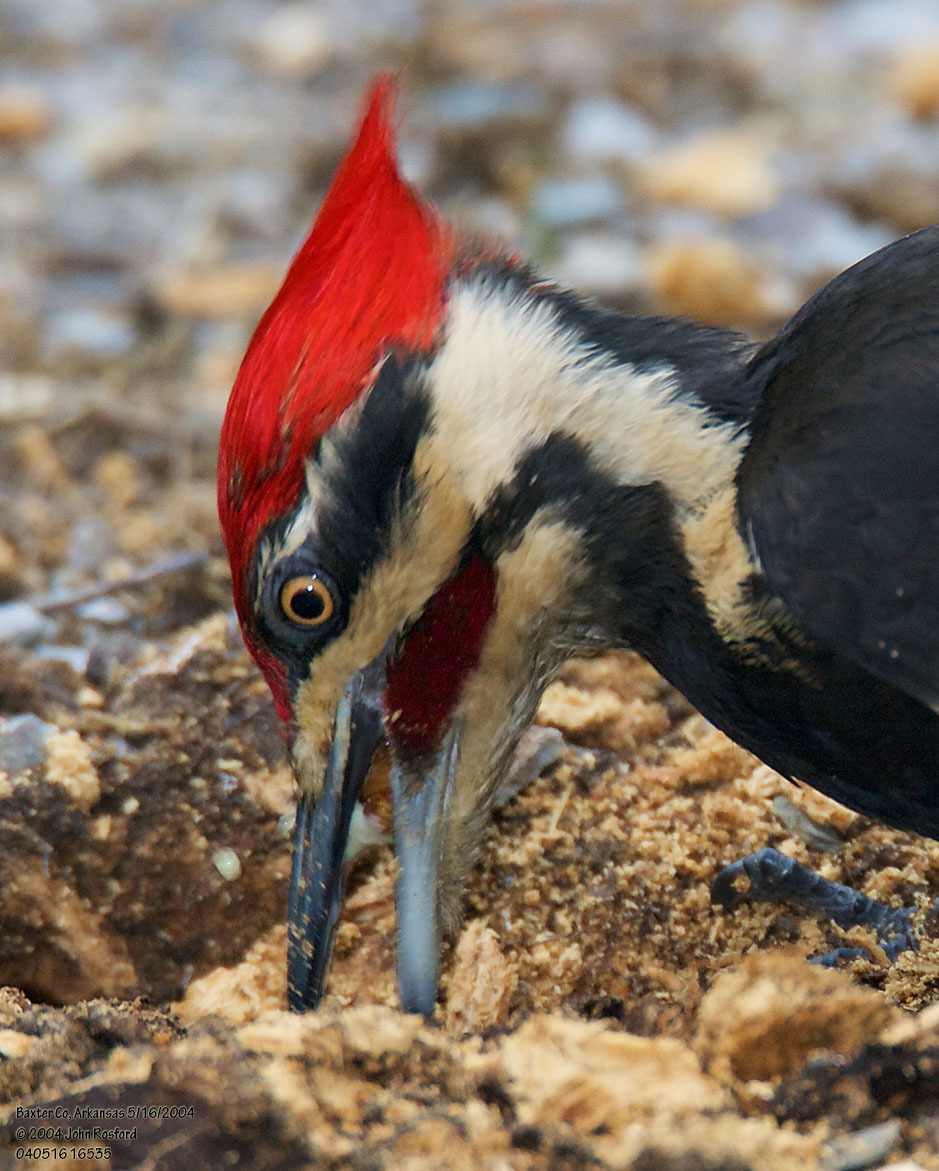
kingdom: Animalia
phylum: Chordata
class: Aves
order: Piciformes
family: Picidae
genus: Dryocopus
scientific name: Dryocopus pileatus
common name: Pileated woodpecker
